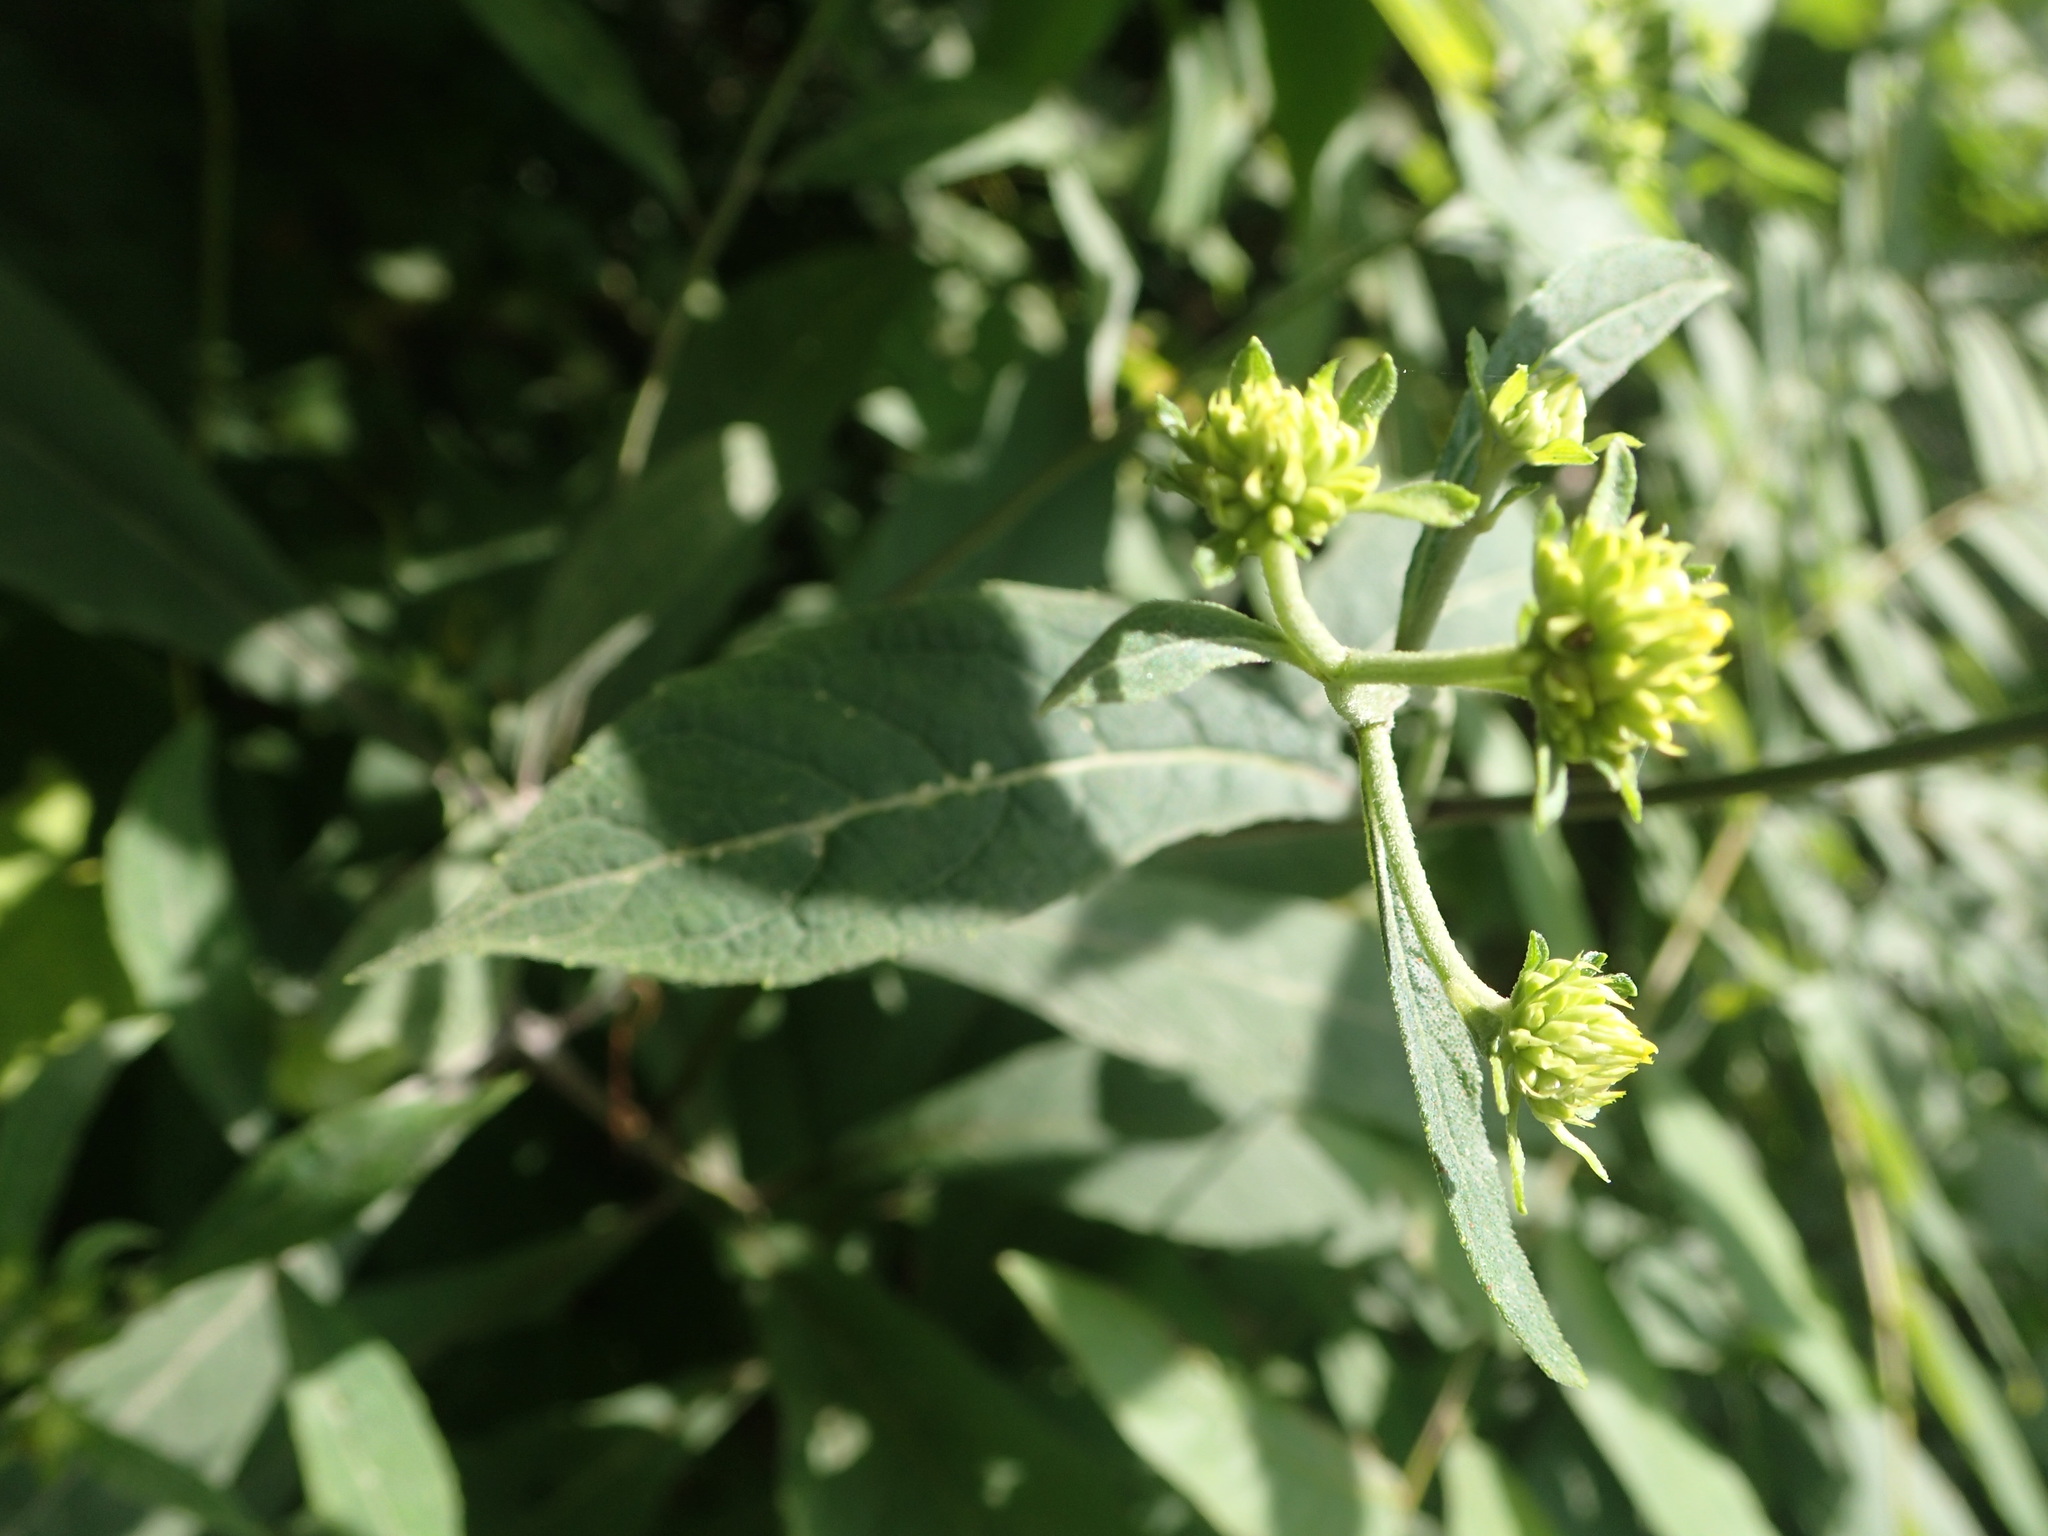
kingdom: Plantae
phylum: Tracheophyta
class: Magnoliopsida
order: Asterales
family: Asteraceae
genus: Verbesina
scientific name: Verbesina alternifolia
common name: Wingstem
